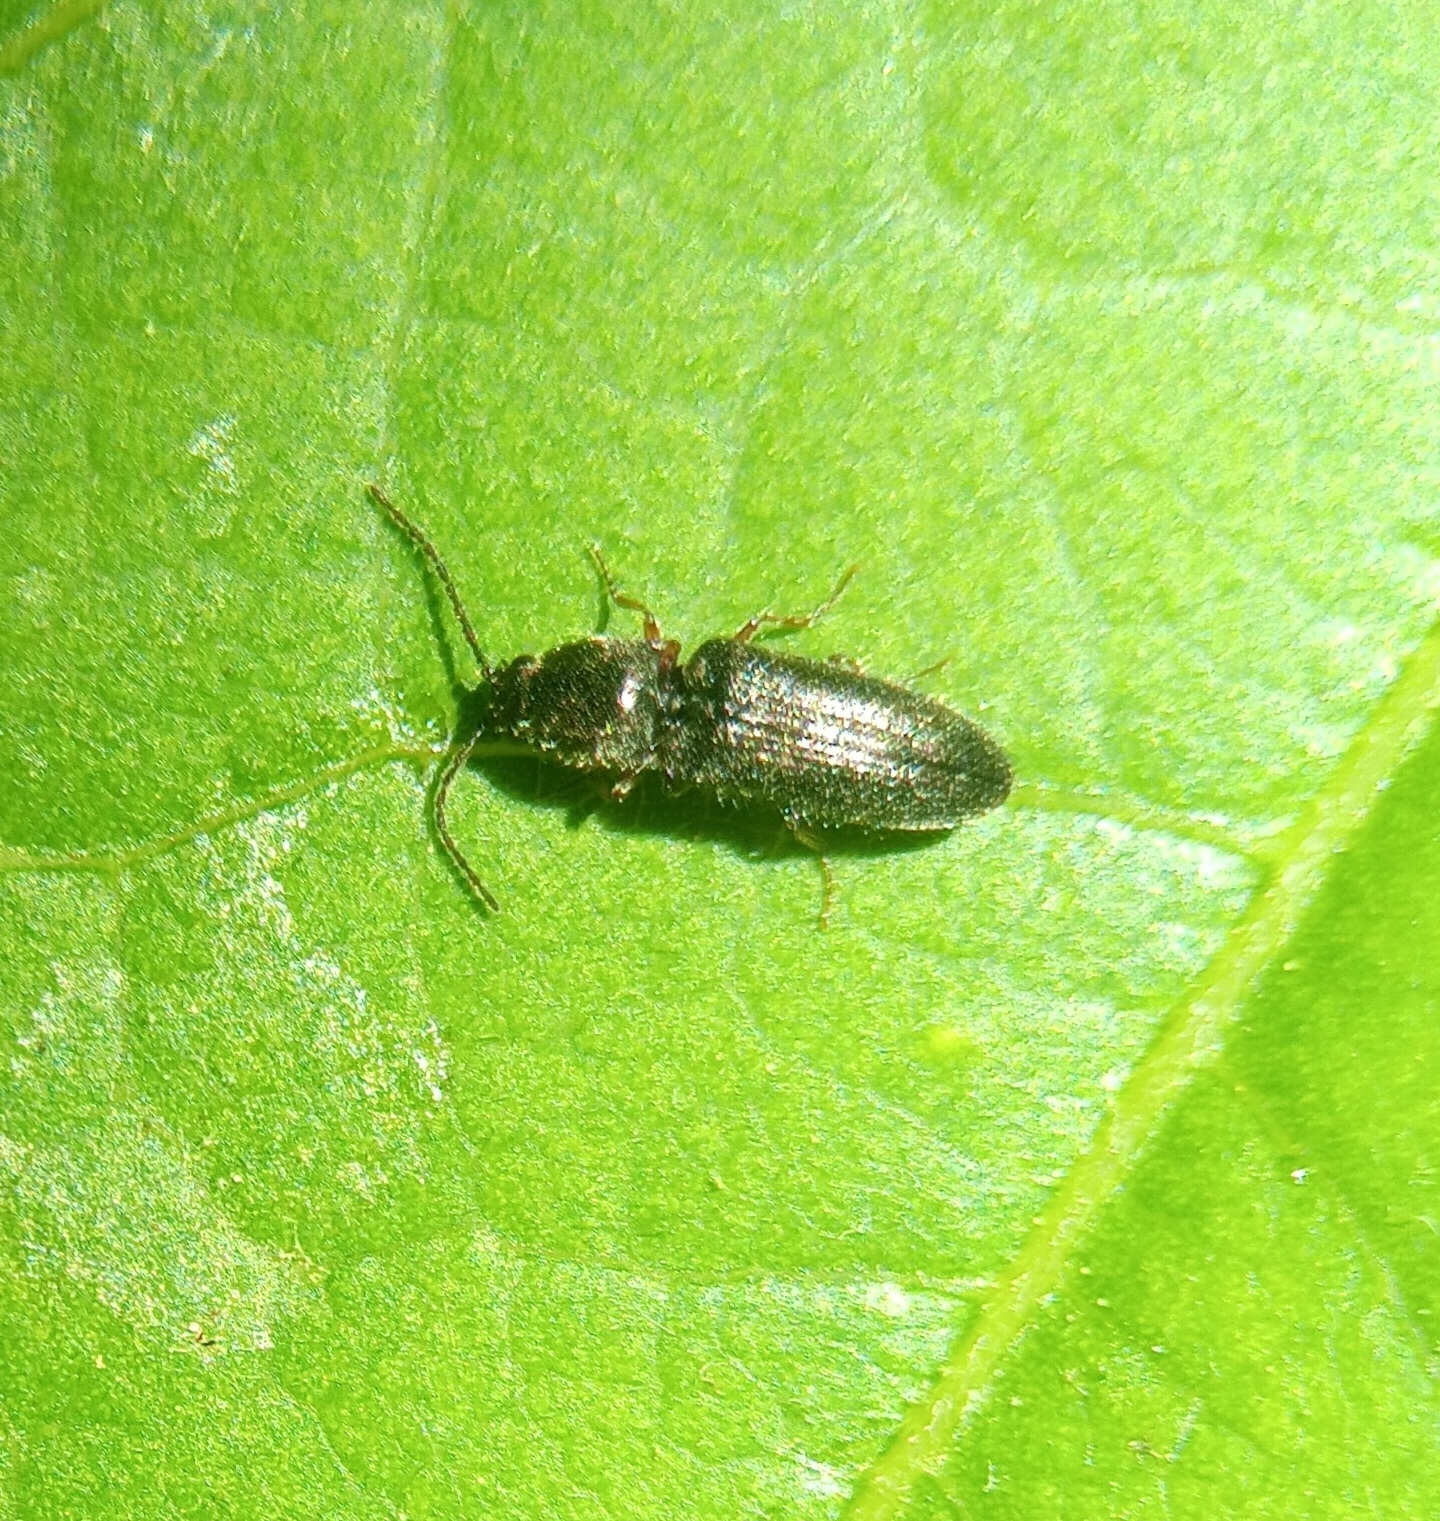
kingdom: Animalia
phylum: Arthropoda
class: Insecta
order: Coleoptera
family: Elateridae
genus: Limonius
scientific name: Limonius basilaris
